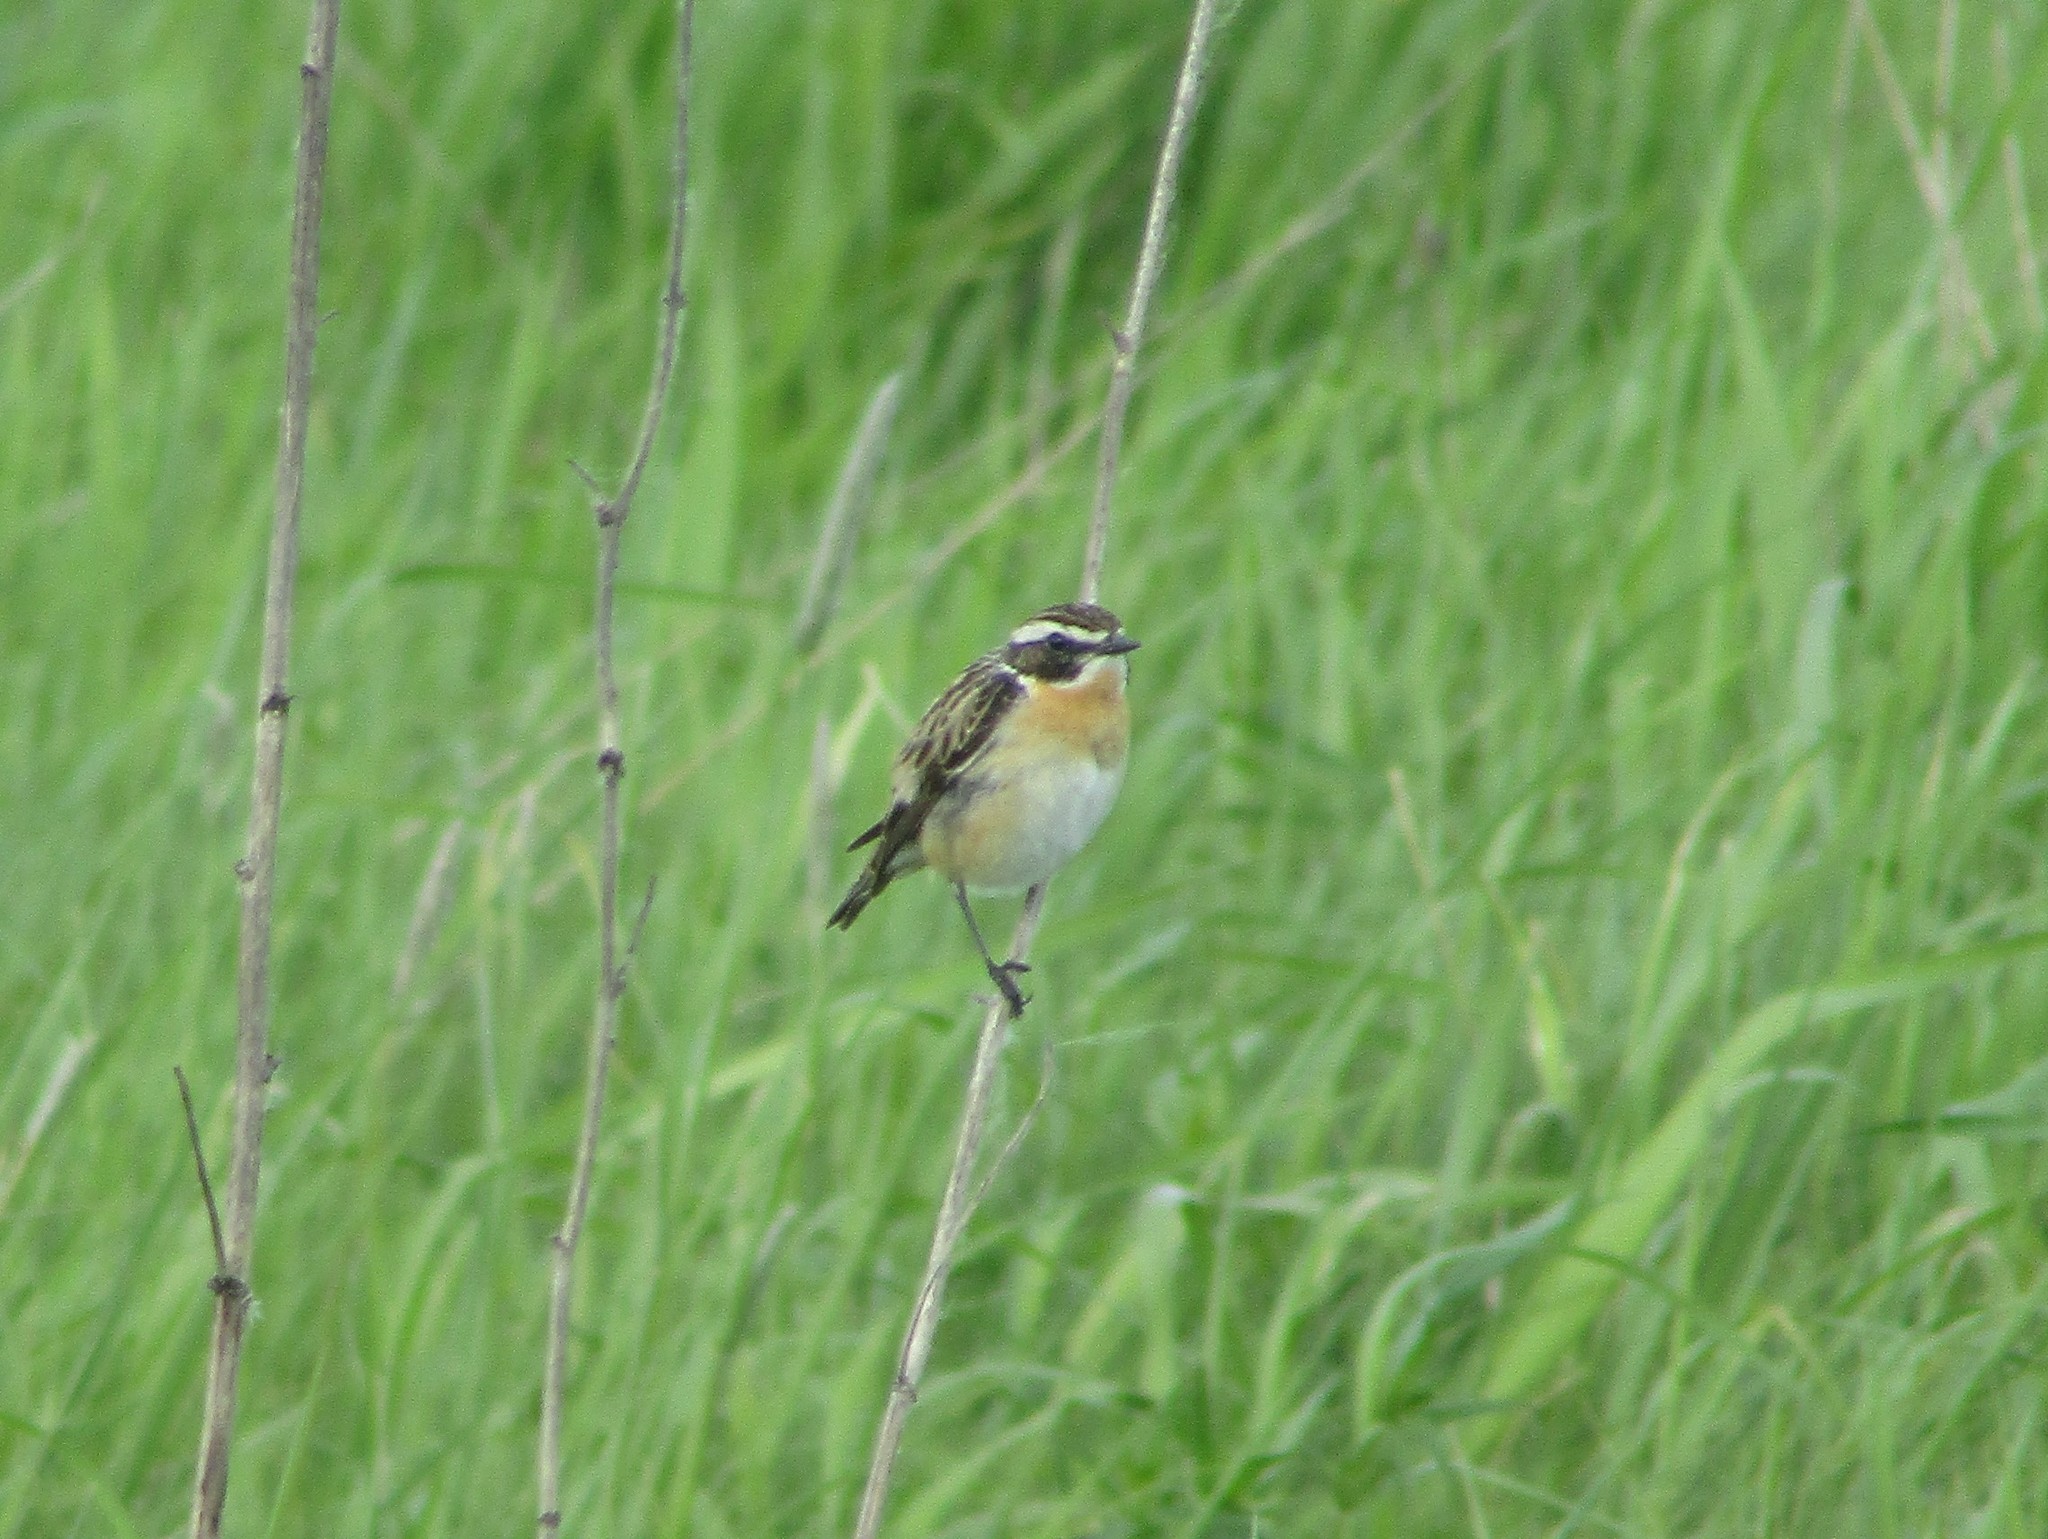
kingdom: Animalia
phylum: Chordata
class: Aves
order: Passeriformes
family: Muscicapidae
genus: Saxicola
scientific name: Saxicola rubetra
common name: Whinchat
